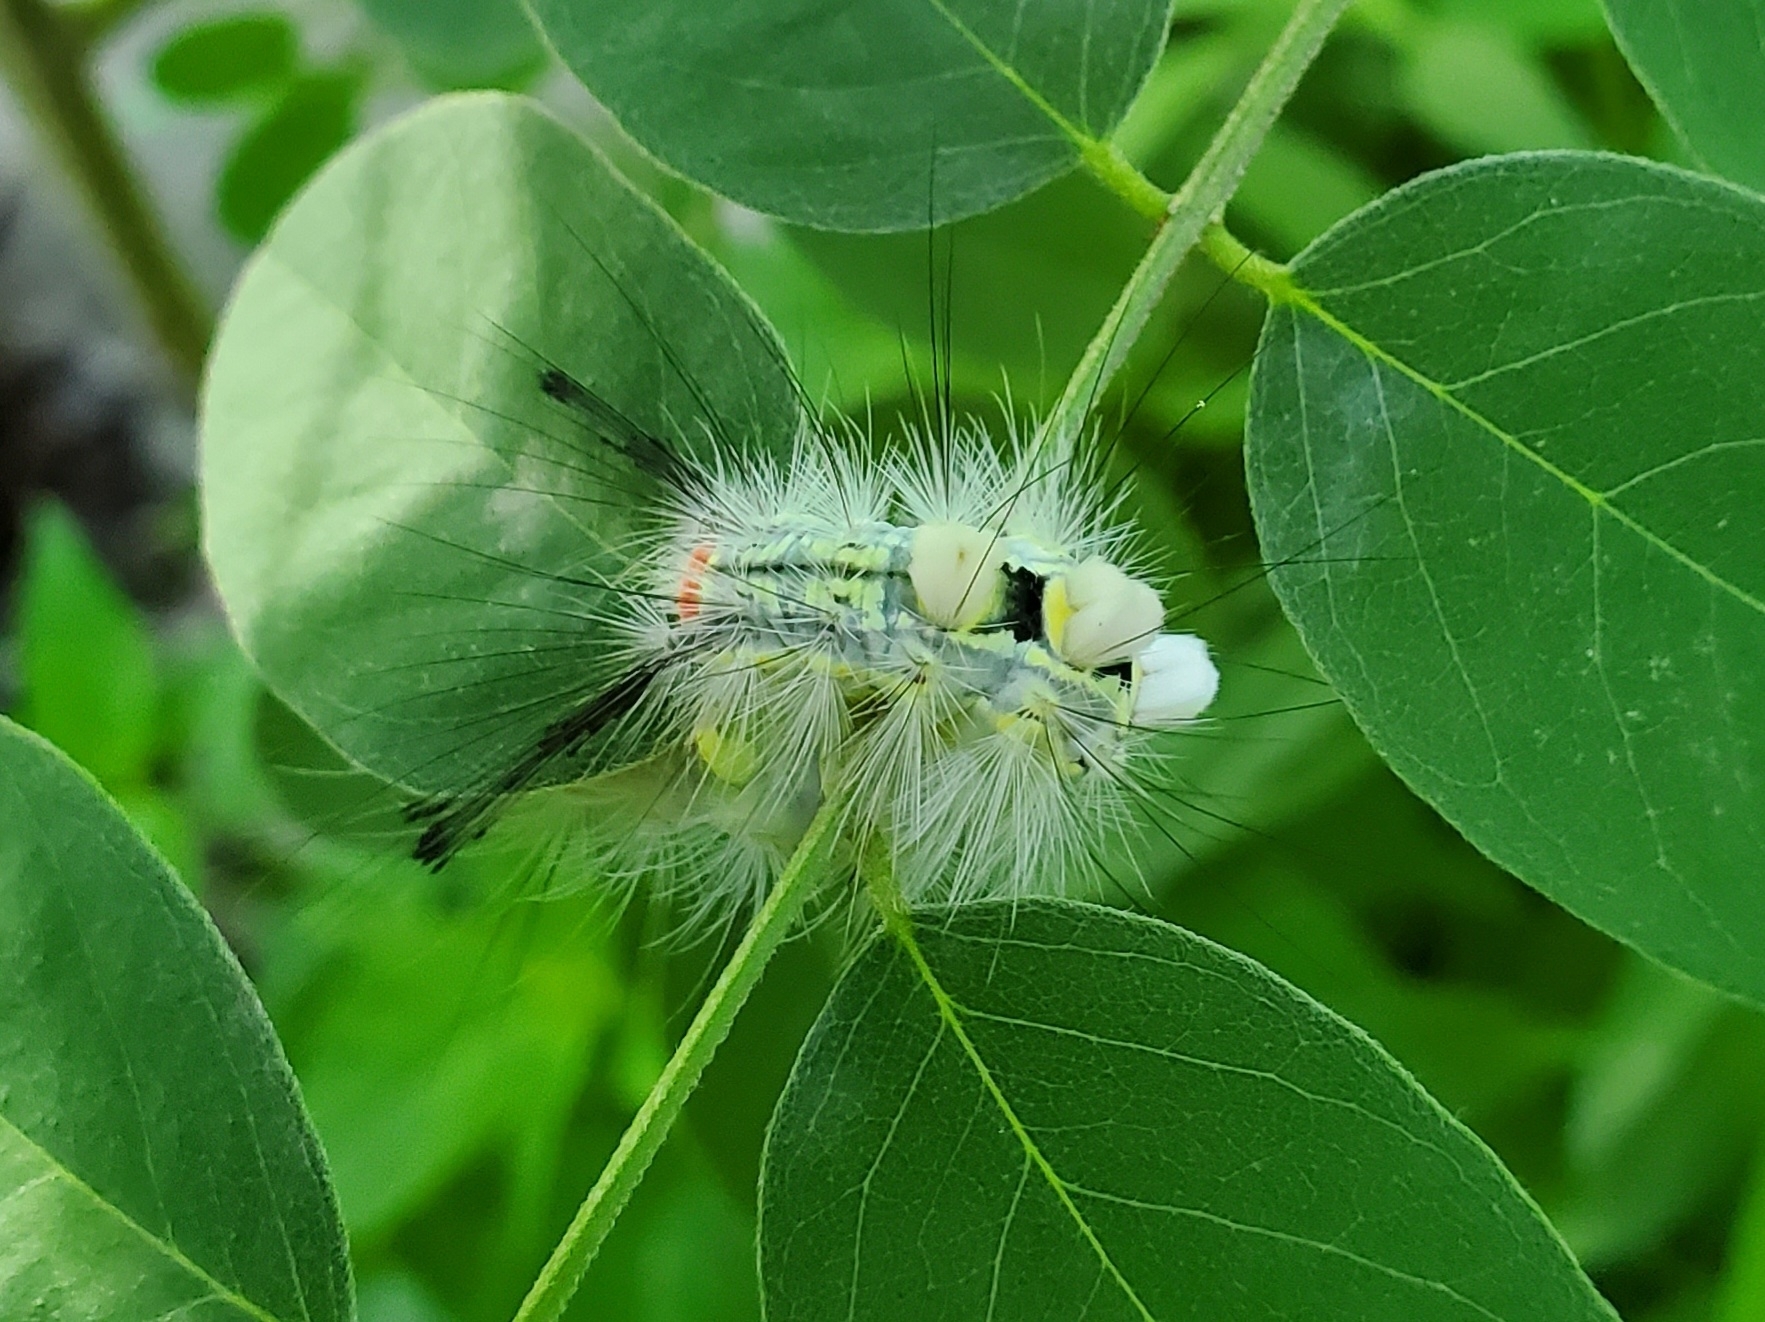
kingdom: Animalia
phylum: Arthropoda
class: Insecta
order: Lepidoptera
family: Erebidae
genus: Orgyia
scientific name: Orgyia leucostigma
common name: White-marked tussock moth
